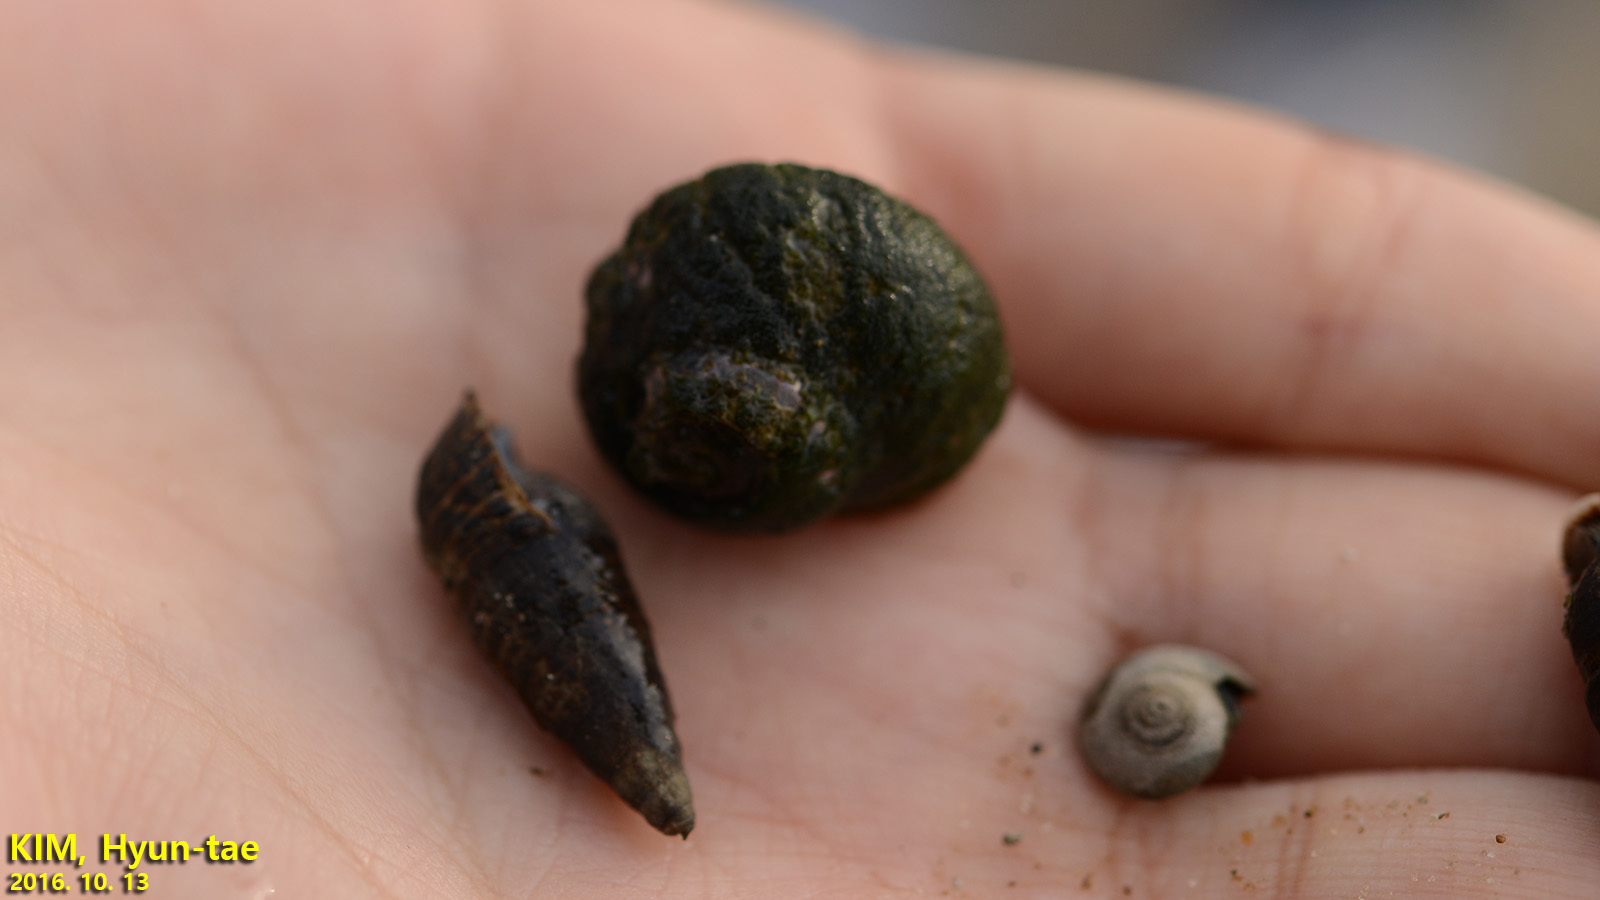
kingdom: Animalia
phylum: Mollusca
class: Gastropoda
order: Trochida
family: Turbinidae
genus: Lunella
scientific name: Lunella correensis
